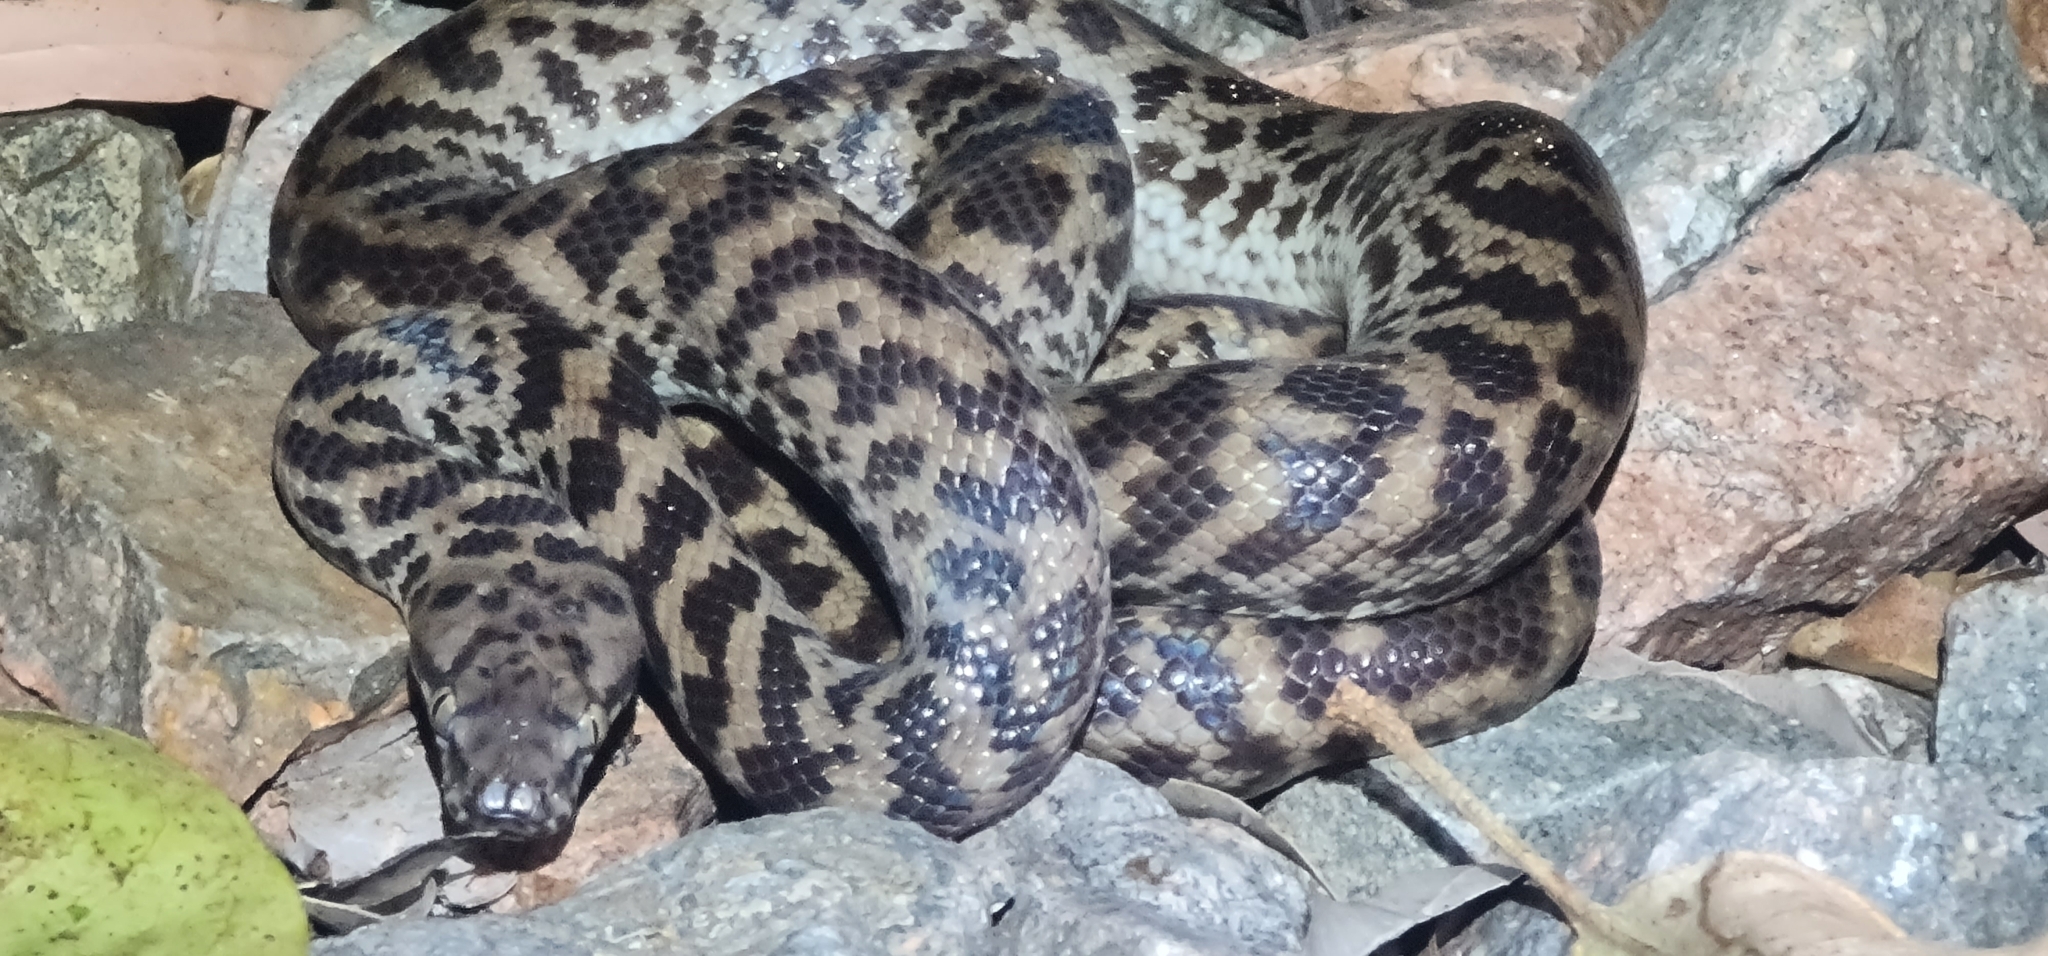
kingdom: Animalia
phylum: Chordata
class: Squamata
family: Pythonidae
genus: Antaresia
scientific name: Antaresia maculosa
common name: Eastern childrens python
